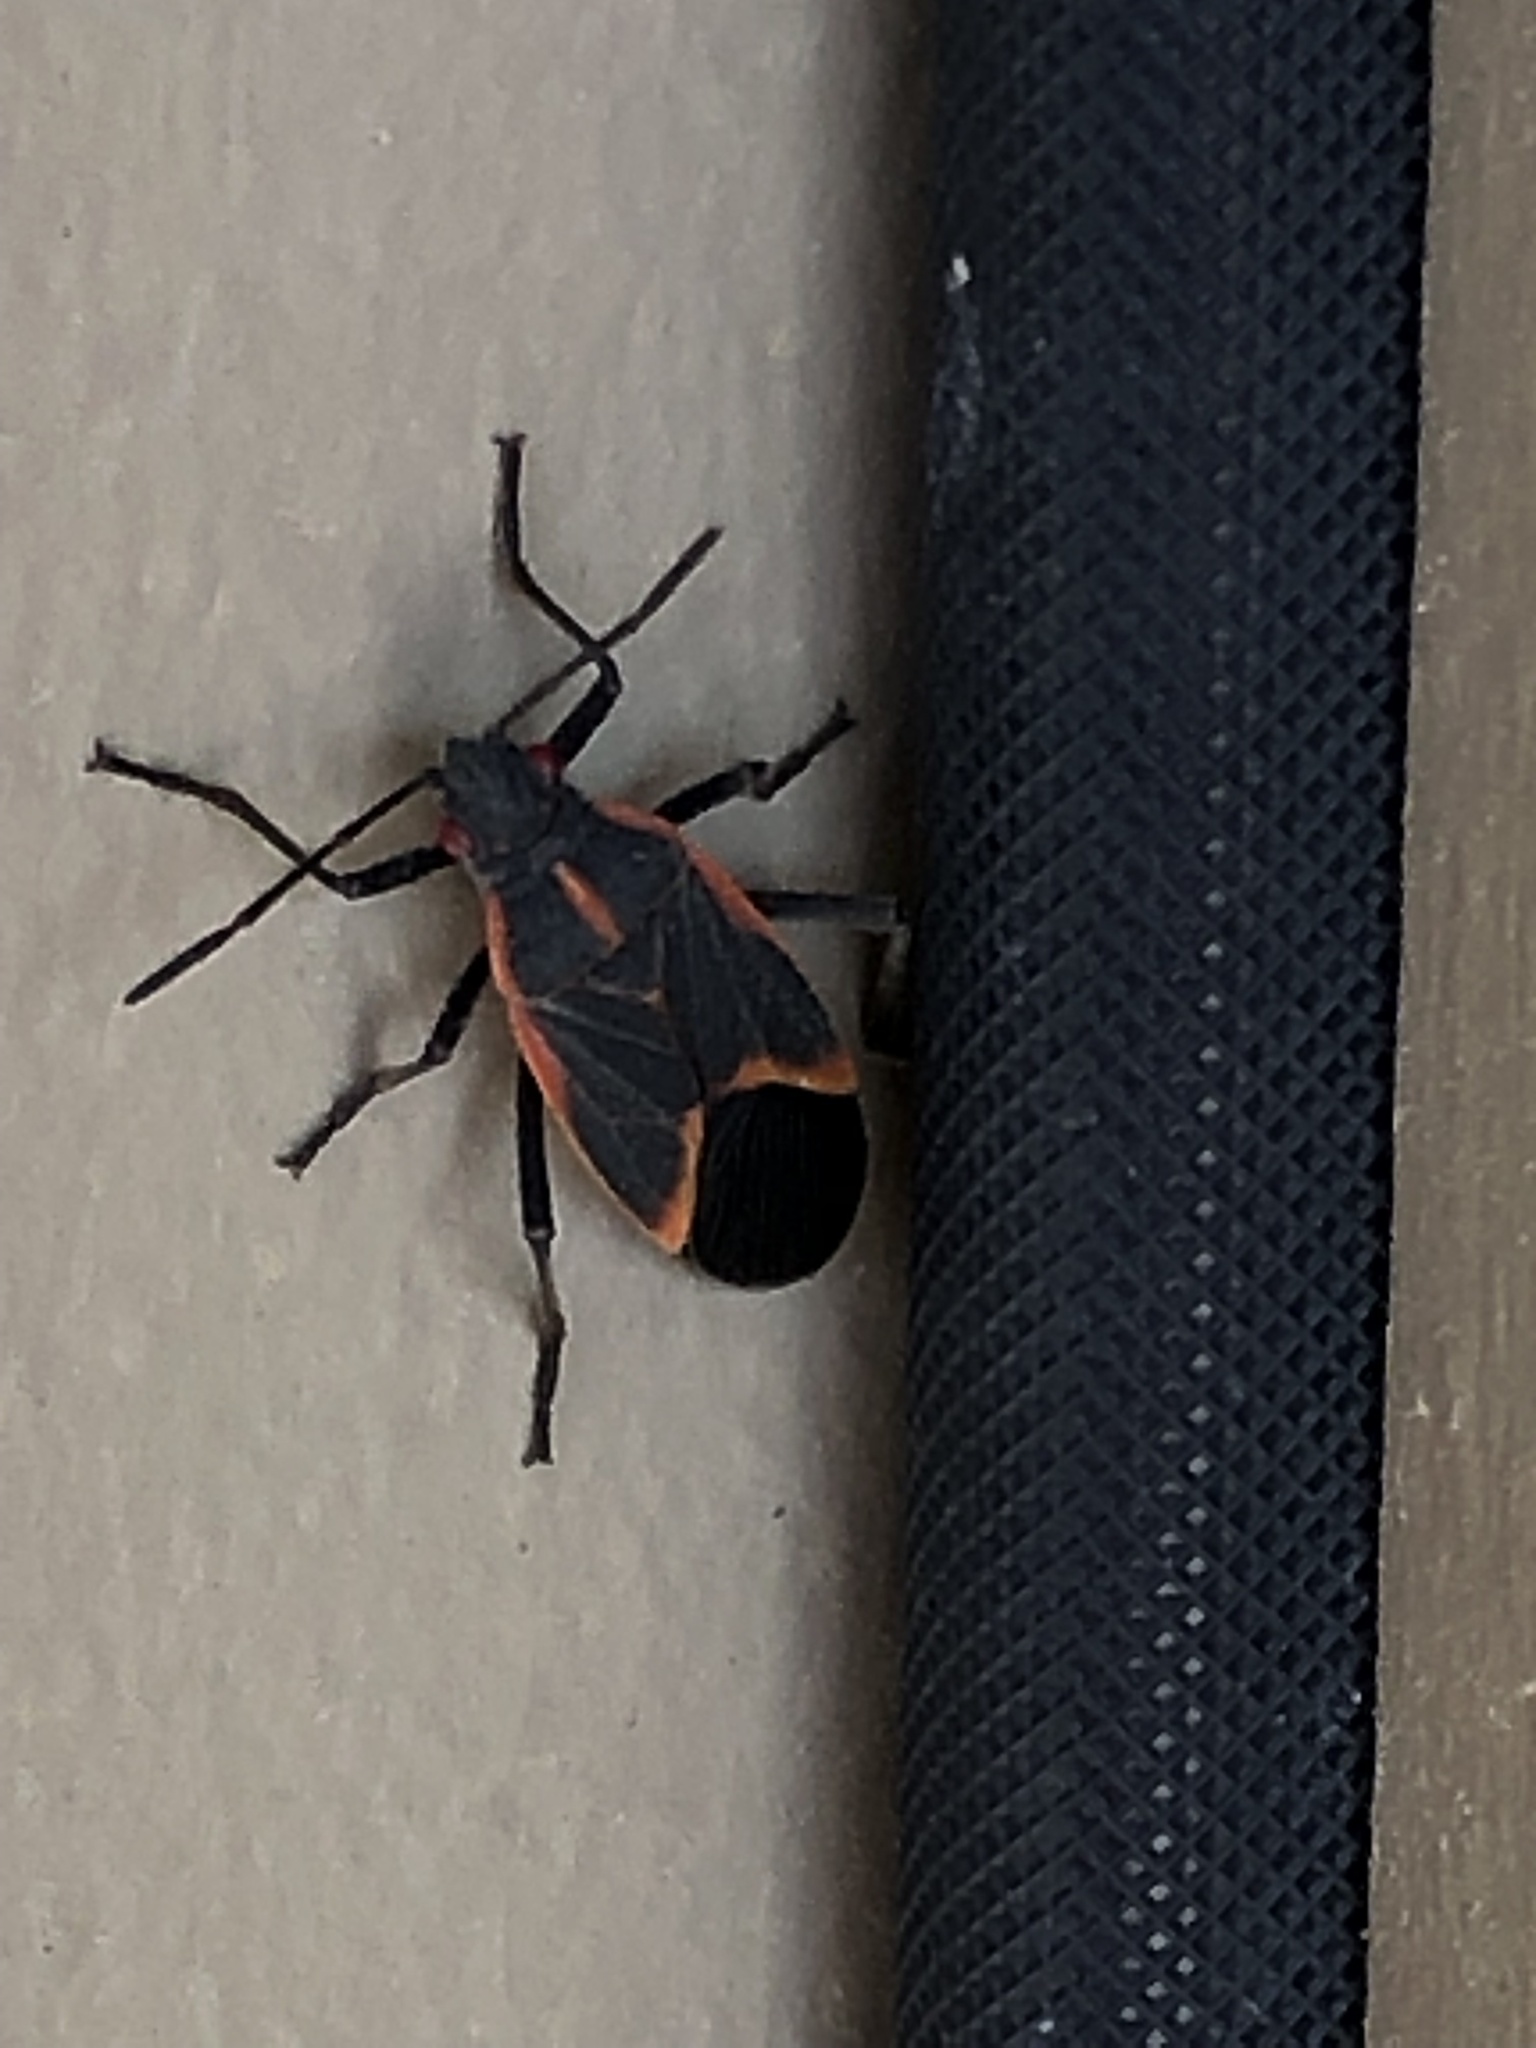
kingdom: Animalia
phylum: Arthropoda
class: Insecta
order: Hemiptera
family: Rhopalidae
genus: Boisea
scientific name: Boisea trivittata
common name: Boxelder bug
